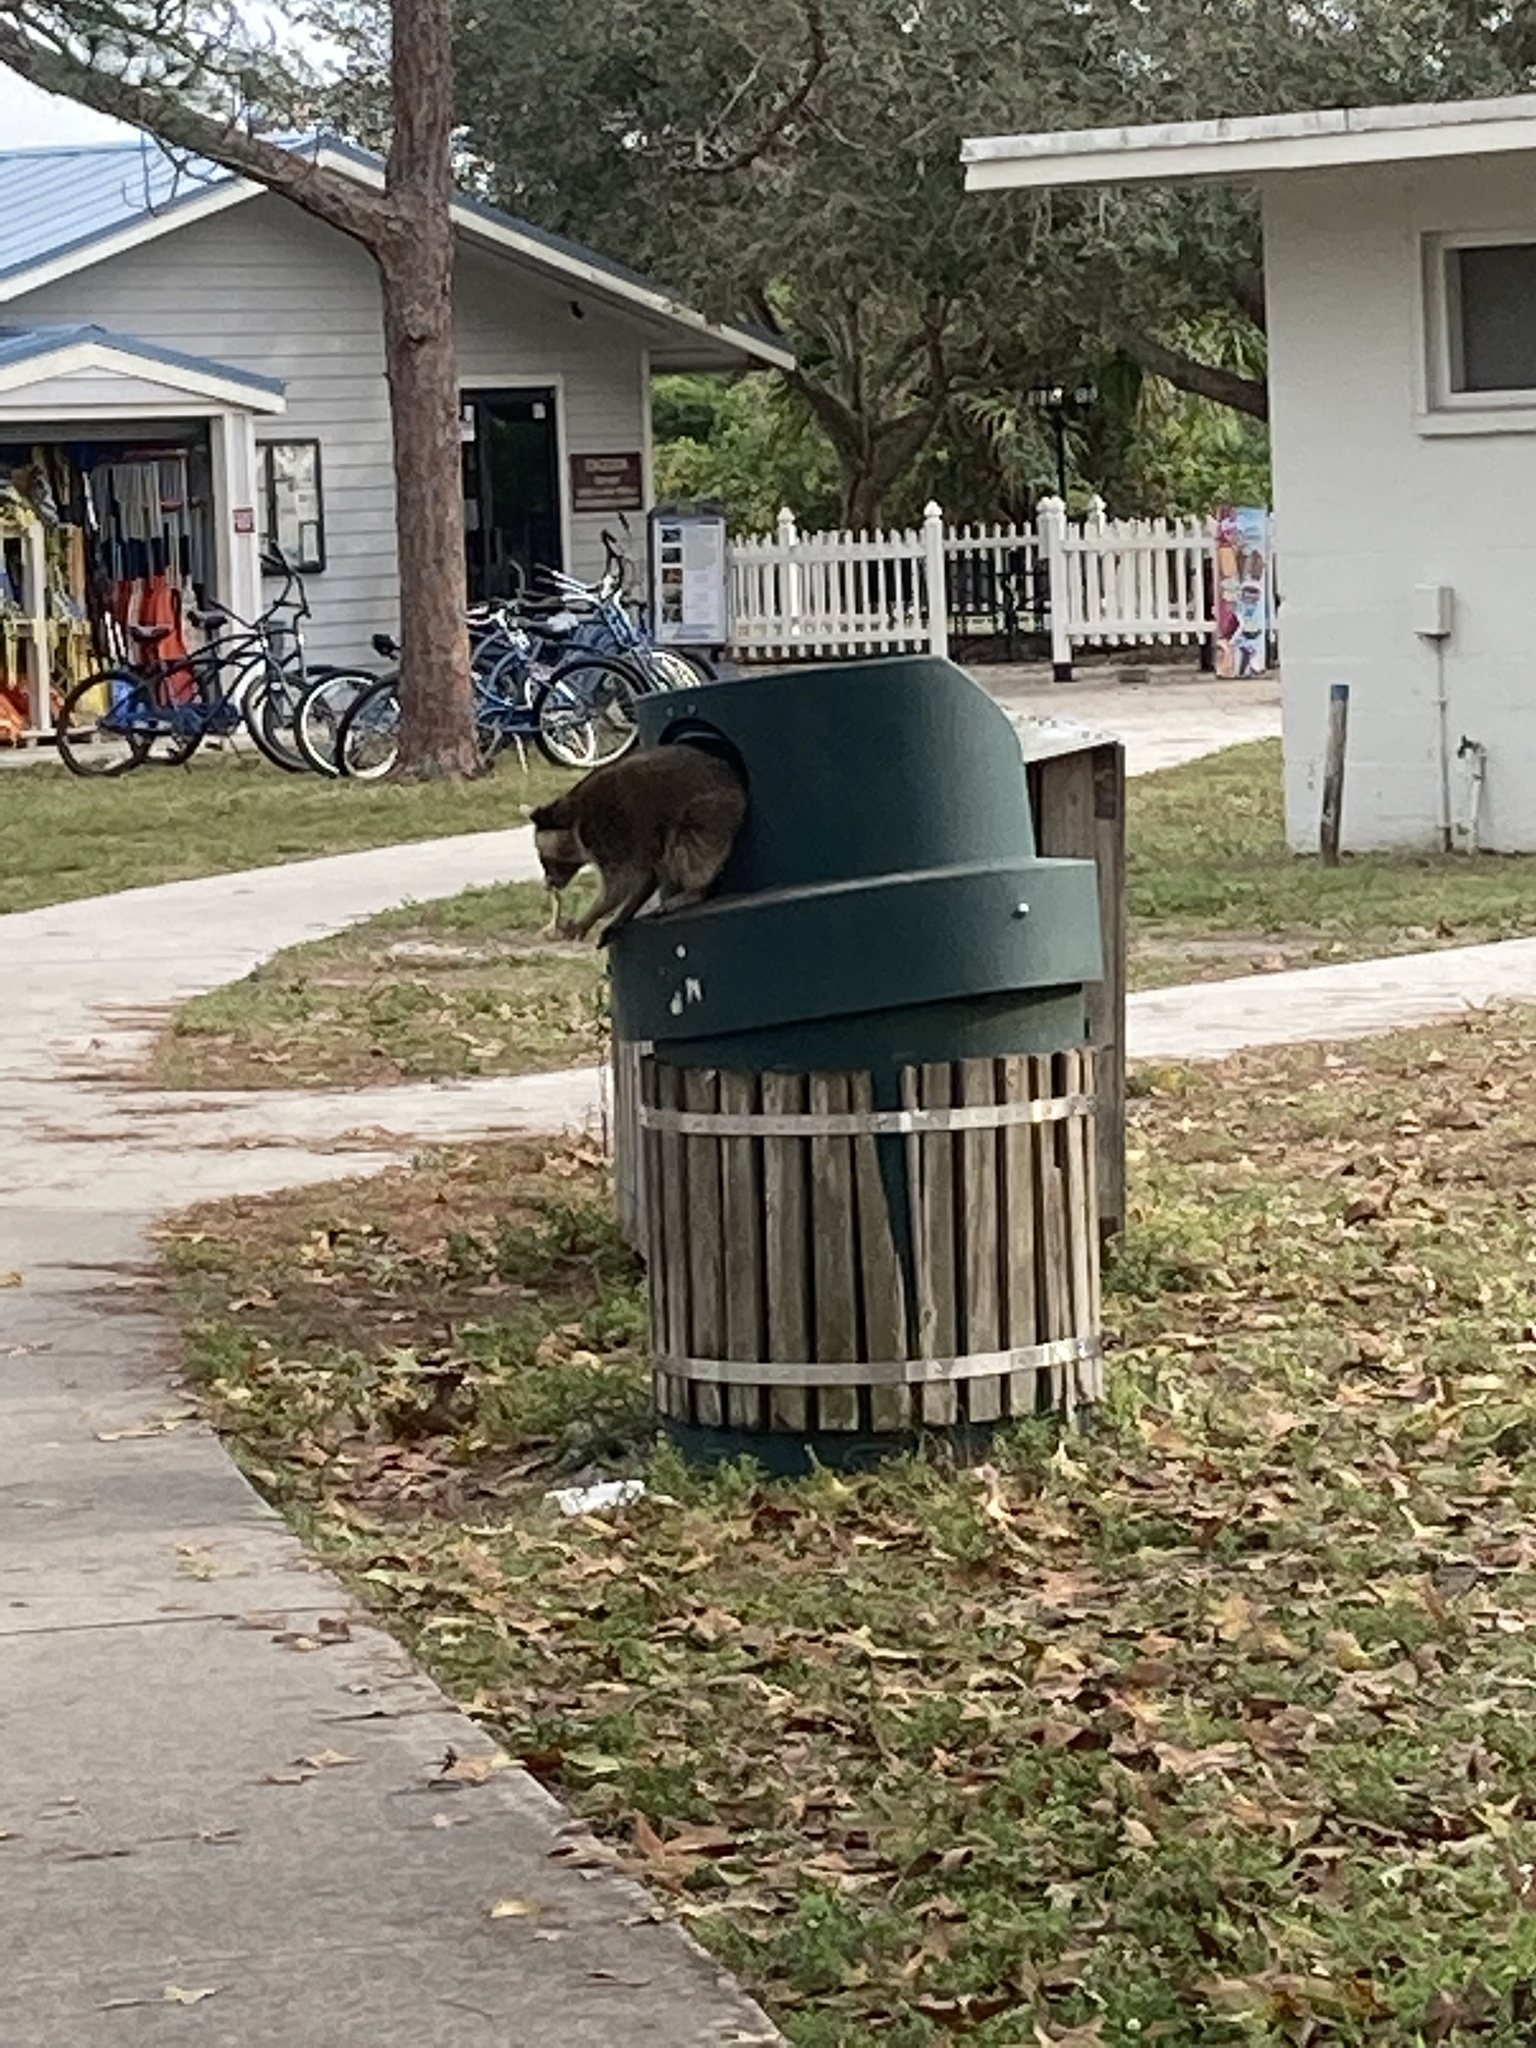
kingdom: Animalia
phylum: Chordata
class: Mammalia
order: Carnivora
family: Procyonidae
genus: Procyon
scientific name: Procyon lotor
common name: Raccoon
